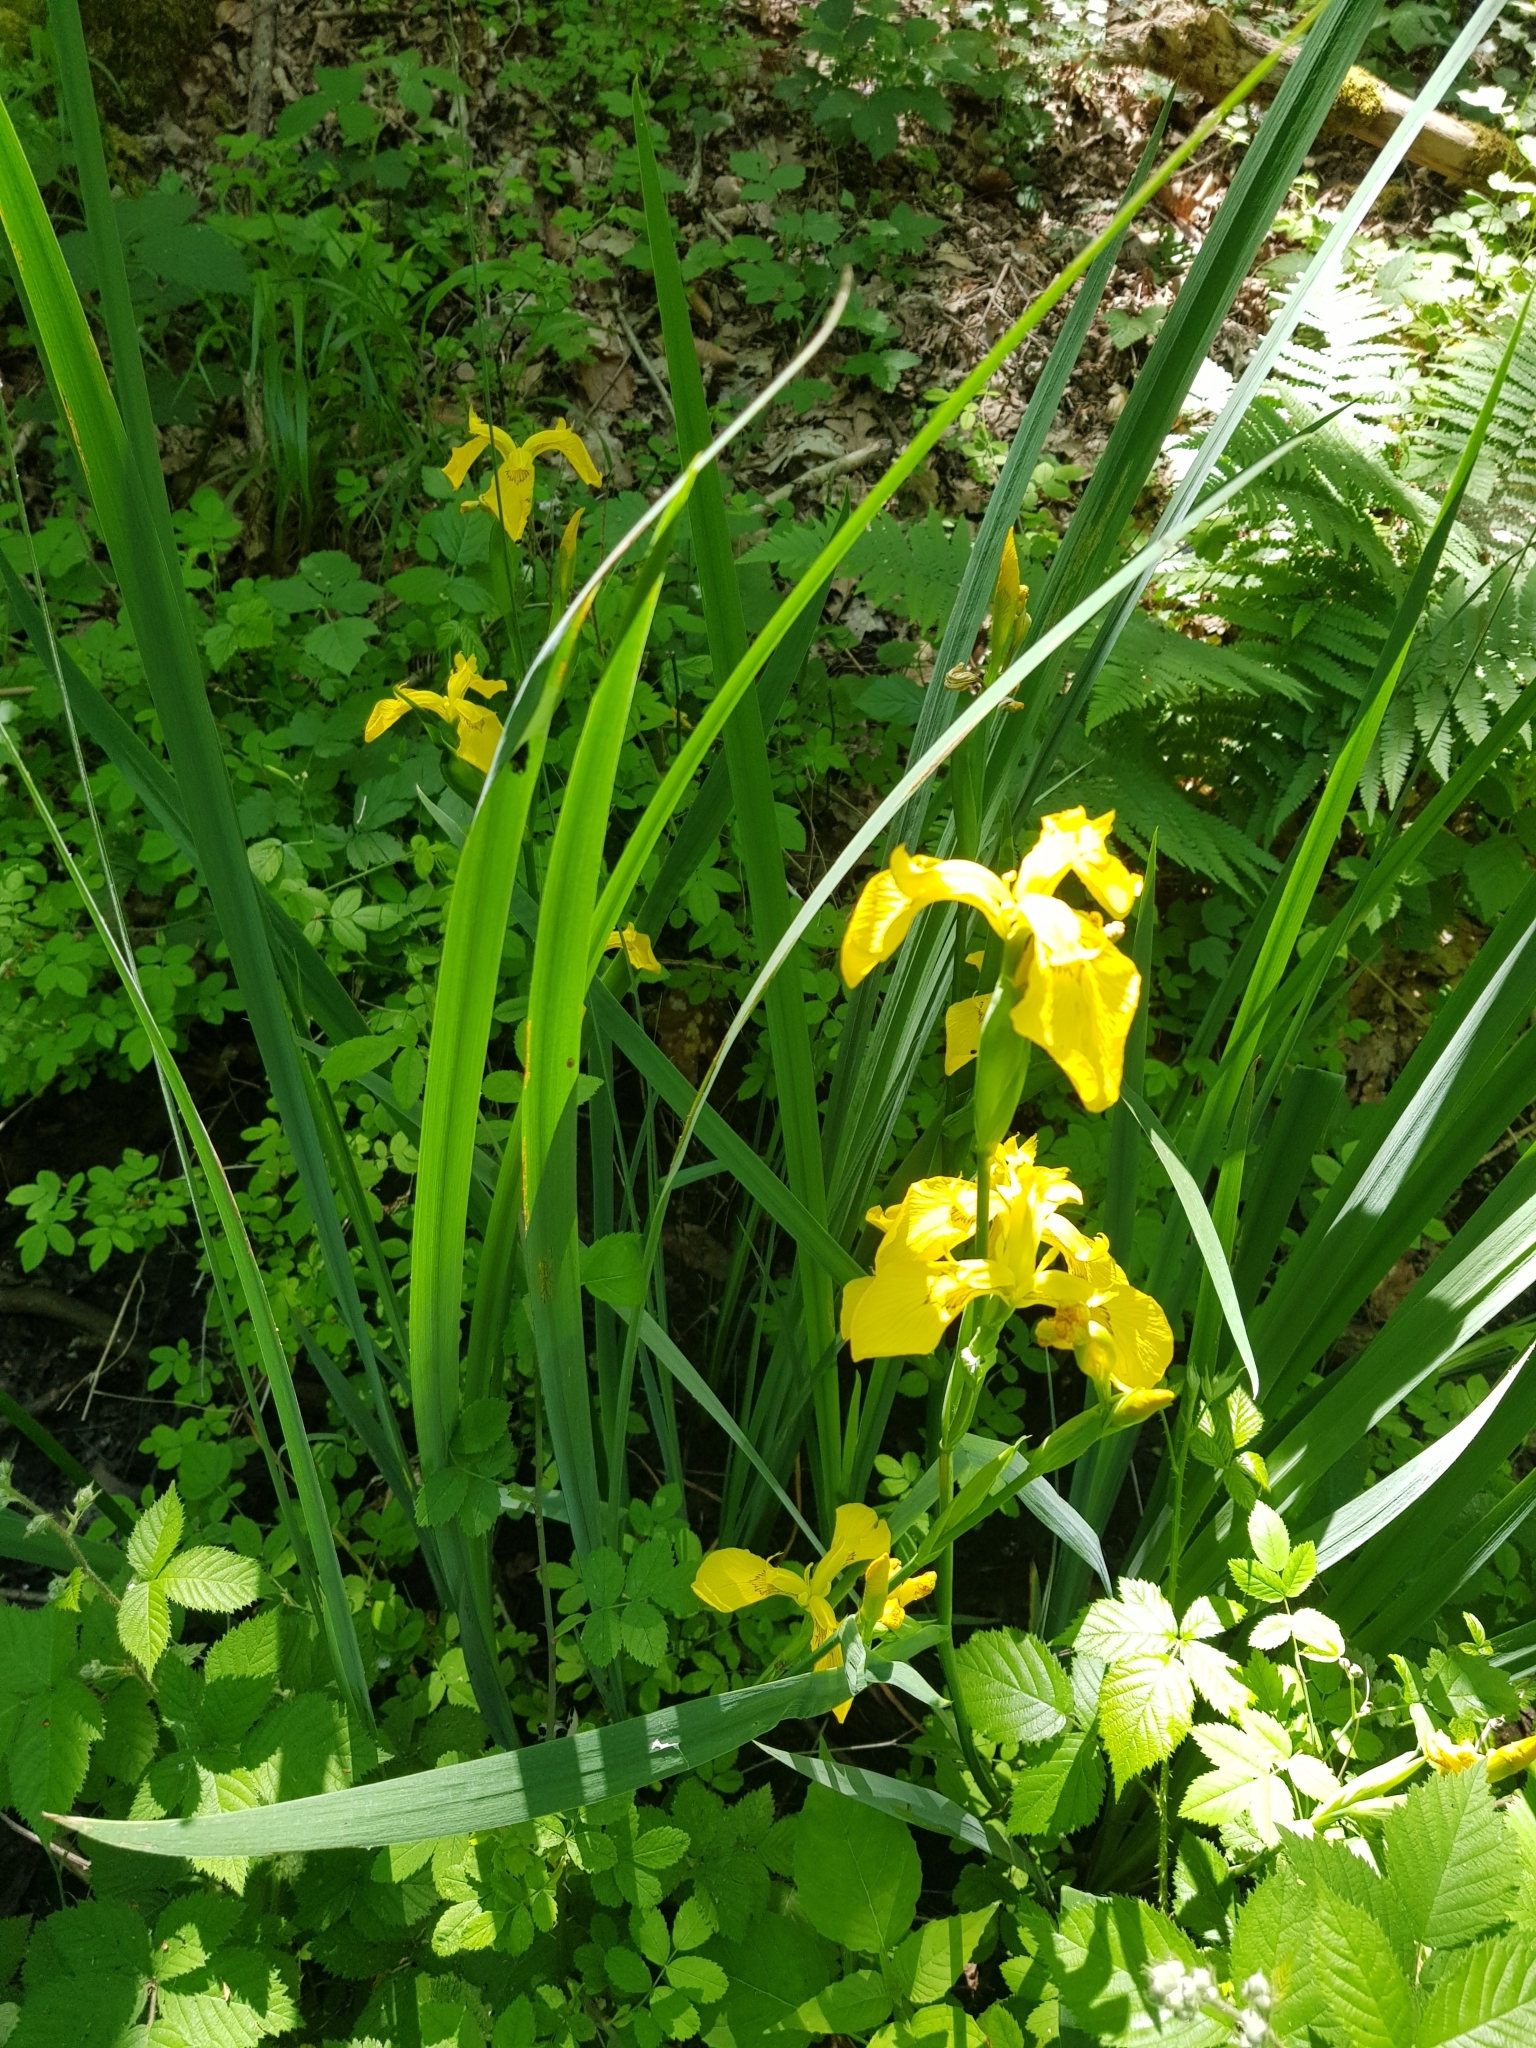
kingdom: Plantae
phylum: Tracheophyta
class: Liliopsida
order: Asparagales
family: Iridaceae
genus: Iris
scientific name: Iris pseudacorus
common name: Yellow flag
